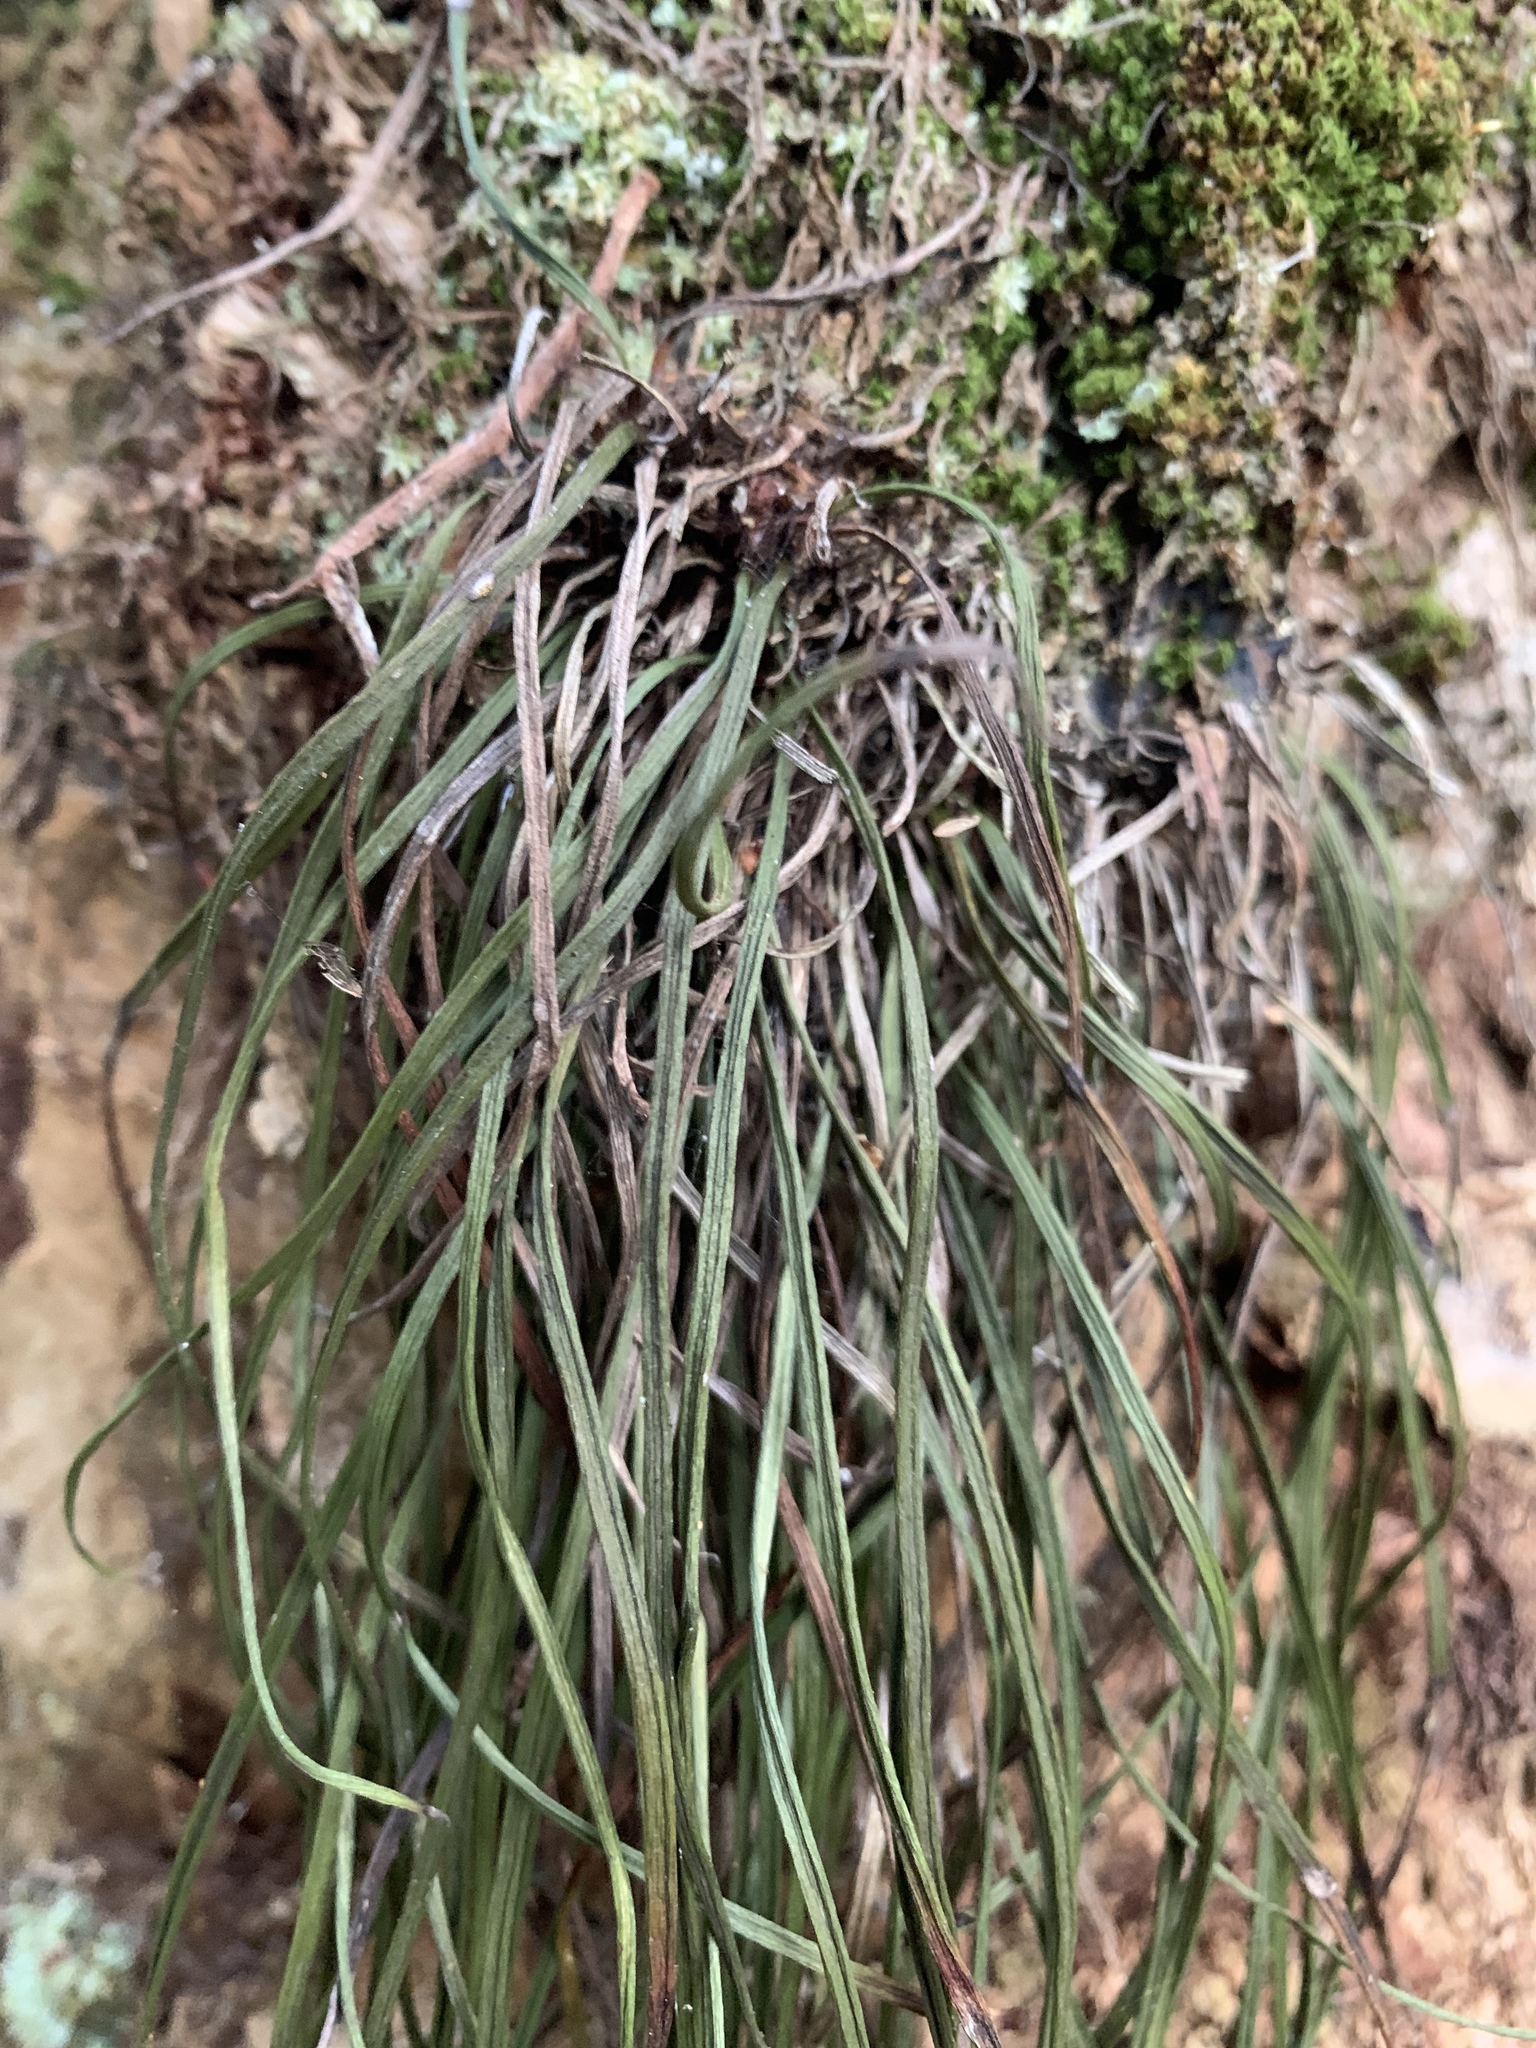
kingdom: Plantae
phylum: Tracheophyta
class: Polypodiopsida
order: Polypodiales
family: Pteridaceae
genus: Vittaria
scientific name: Vittaria lineata
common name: Shoestring fern
